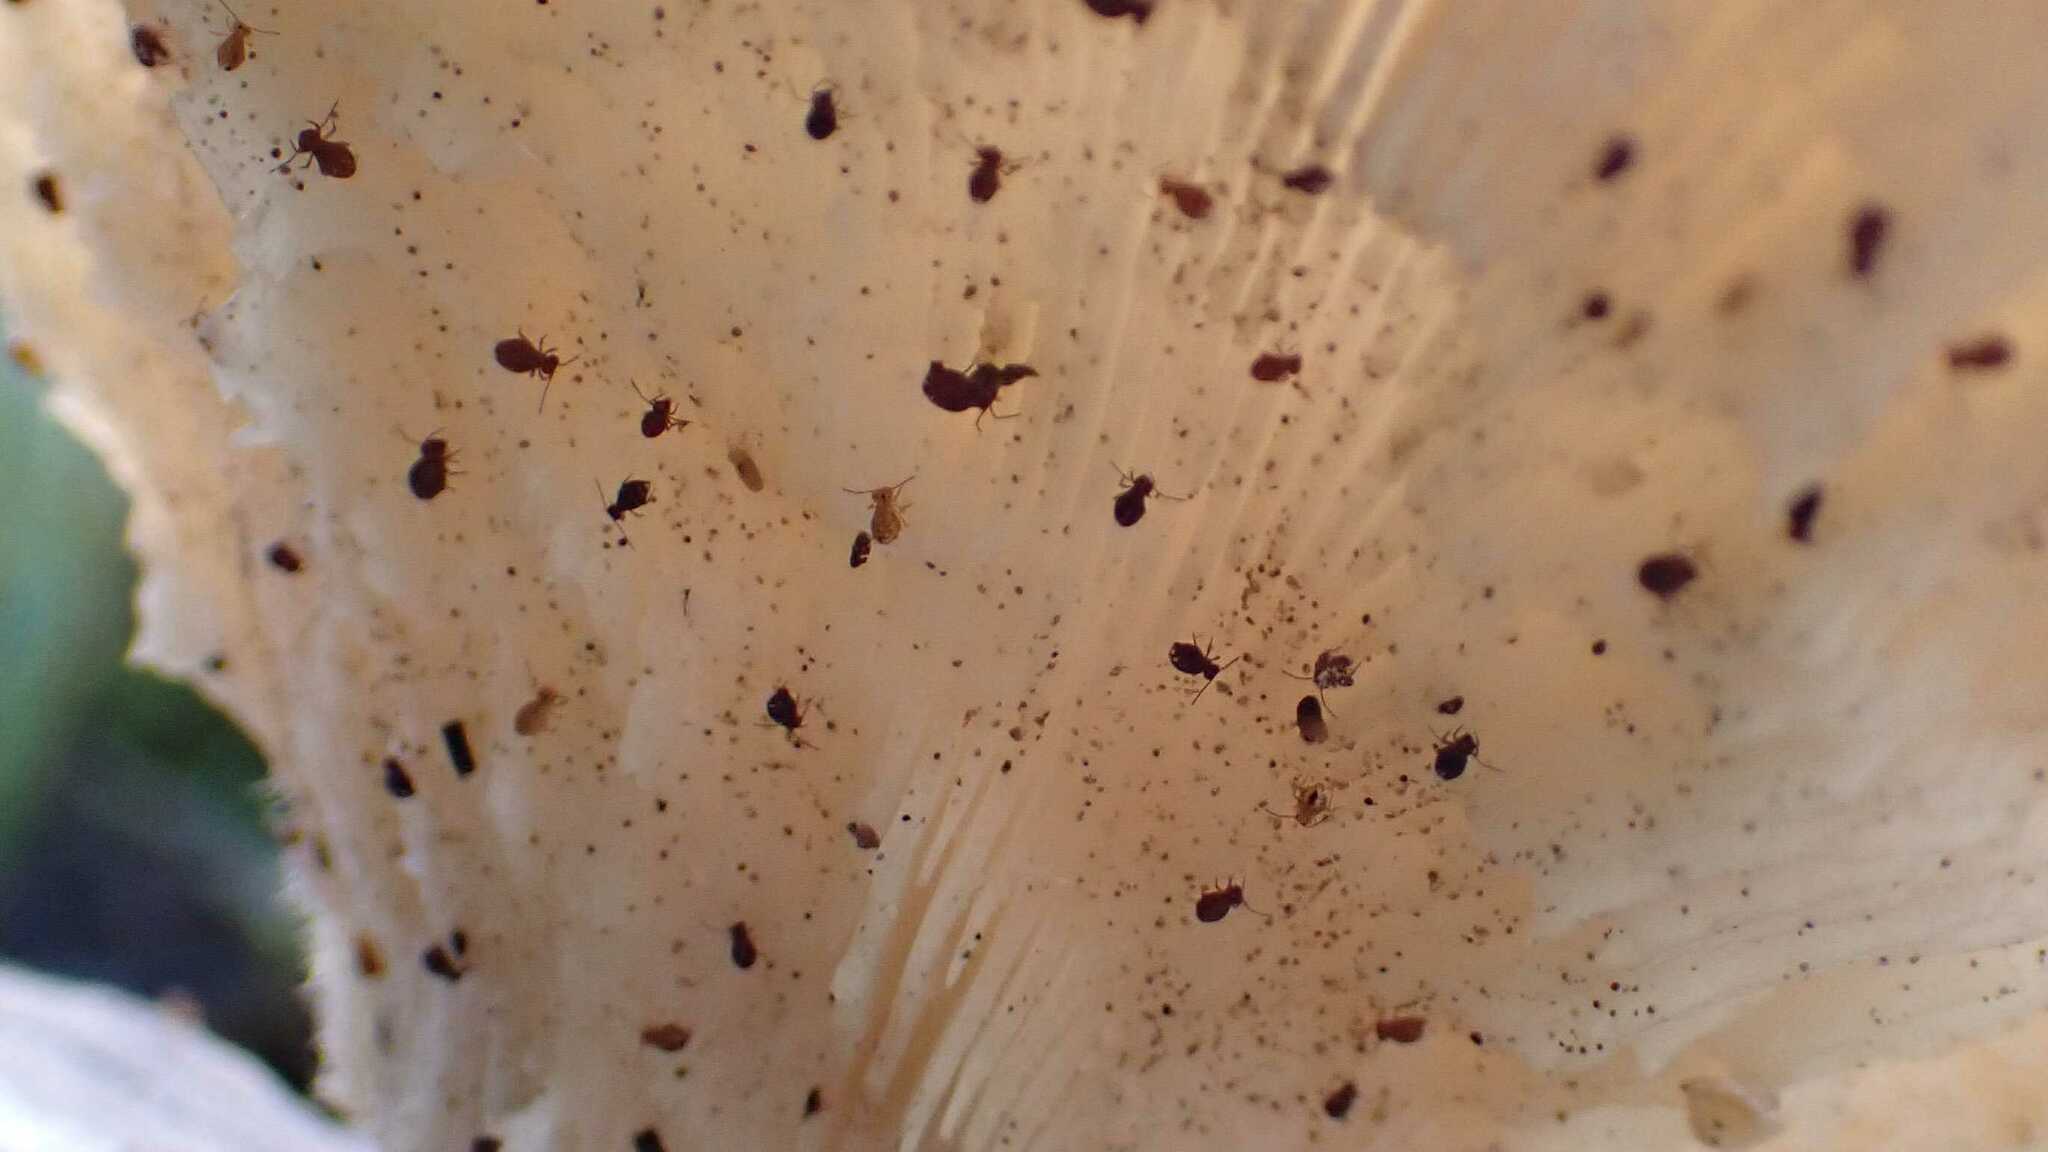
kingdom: Fungi
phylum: Basidiomycota
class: Agaricomycetes
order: Agaricales
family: Pleurotaceae
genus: Pleurotus
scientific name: Pleurotus ostreatus
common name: Oyster mushroom
